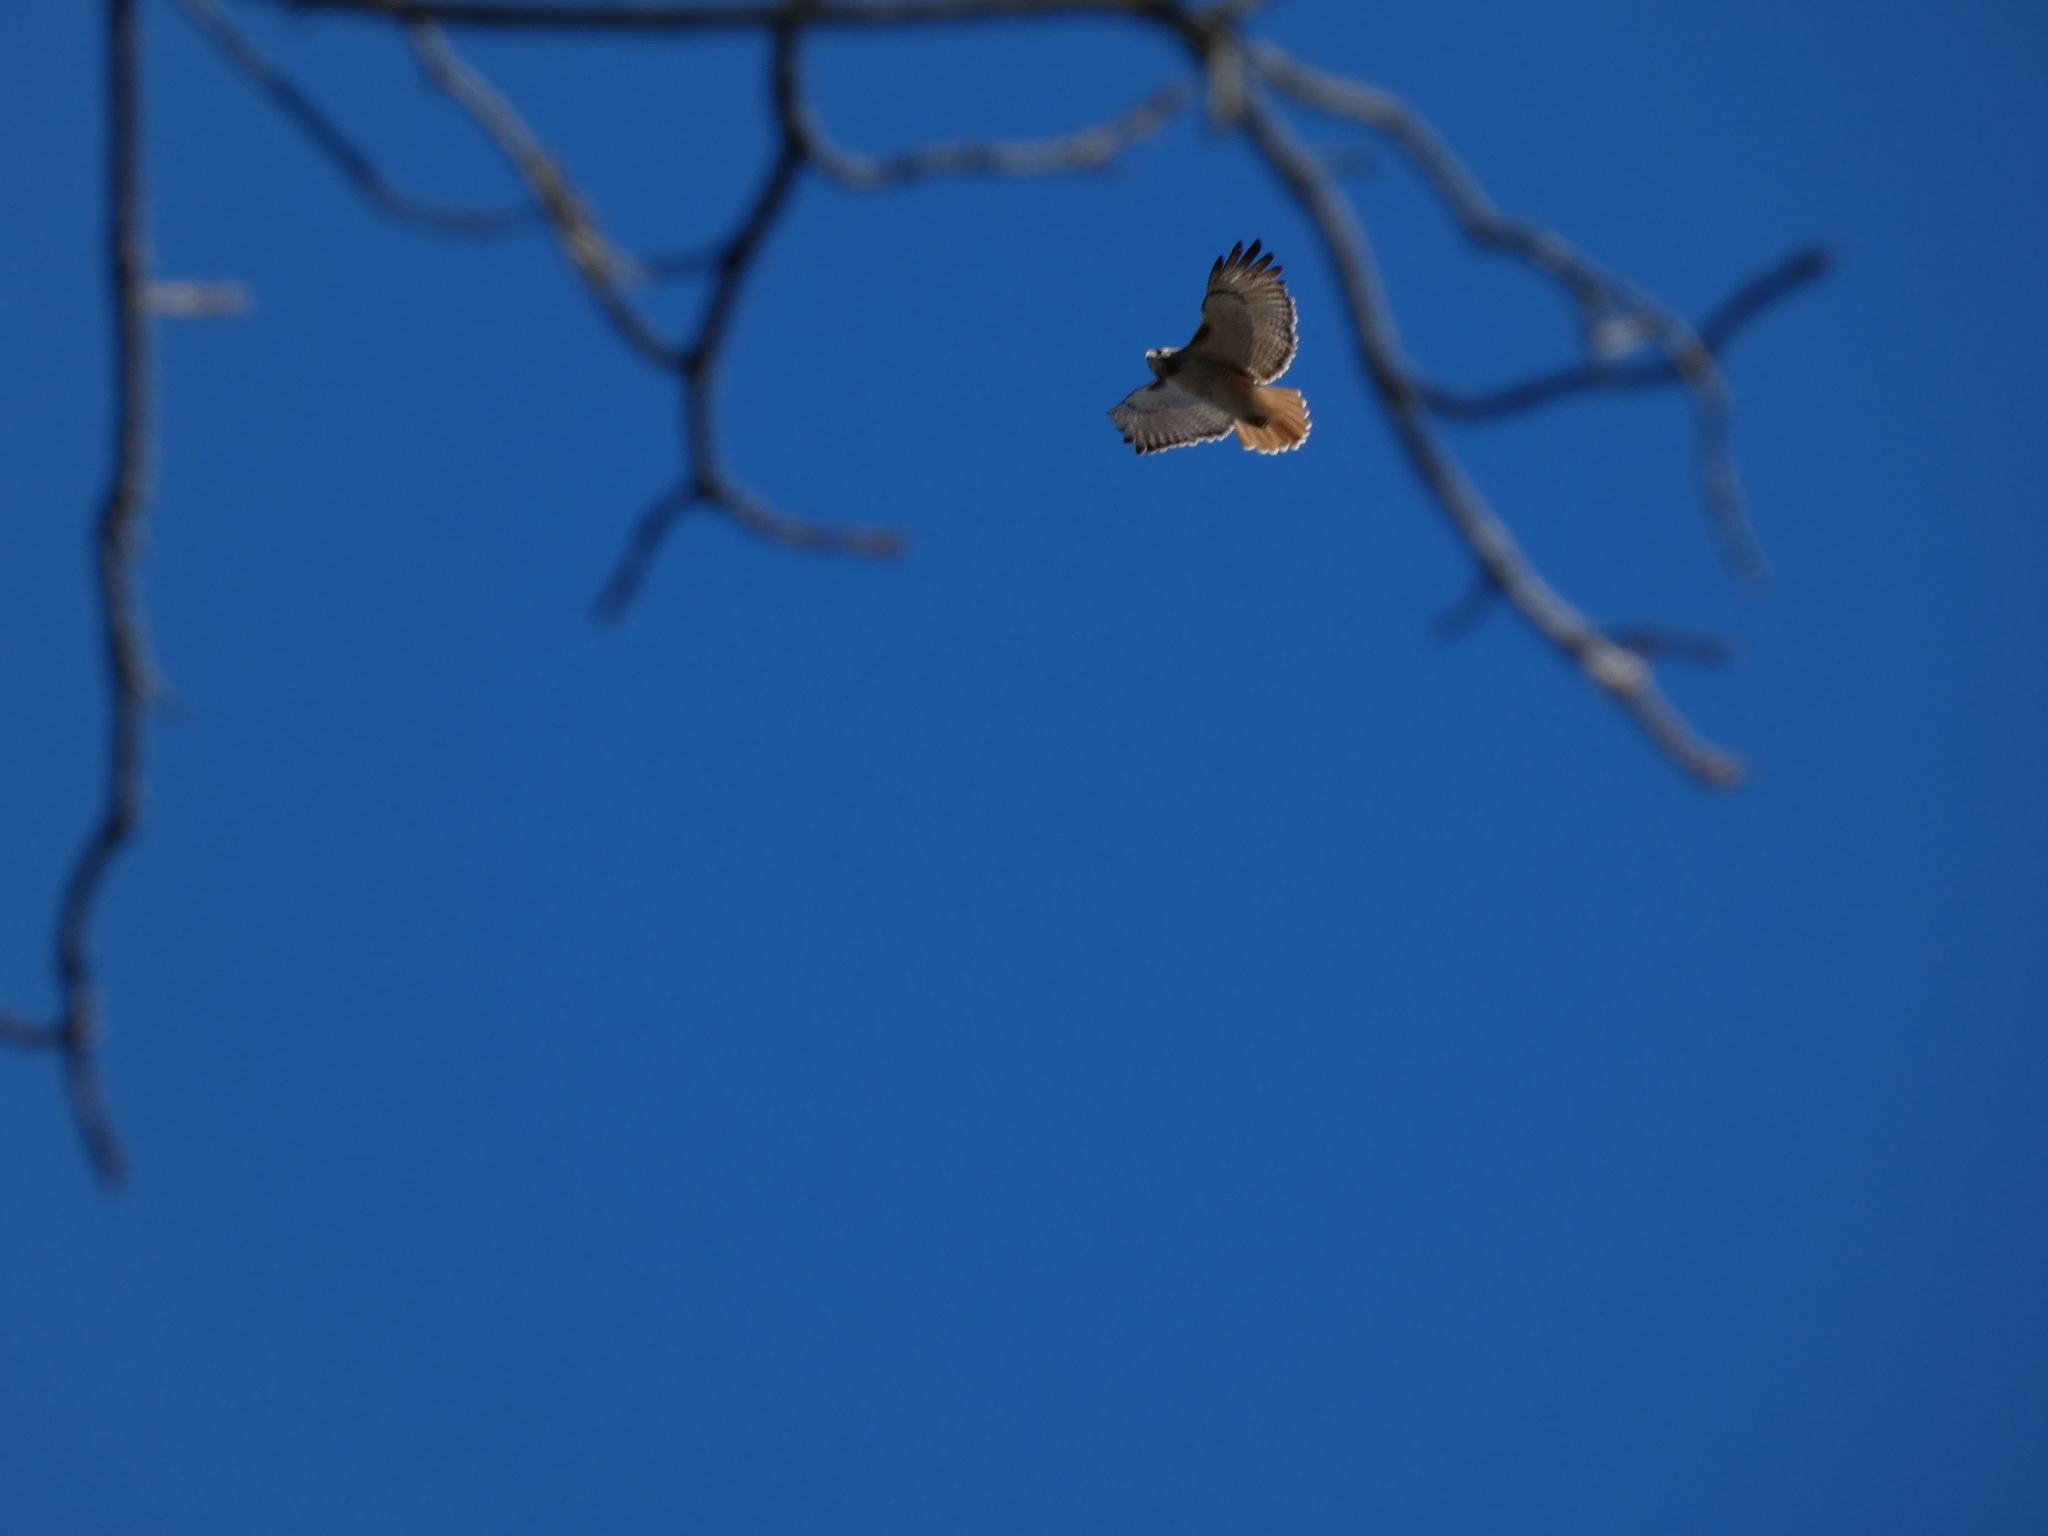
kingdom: Animalia
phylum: Chordata
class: Aves
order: Accipitriformes
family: Accipitridae
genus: Buteo
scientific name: Buteo jamaicensis
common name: Red-tailed hawk
